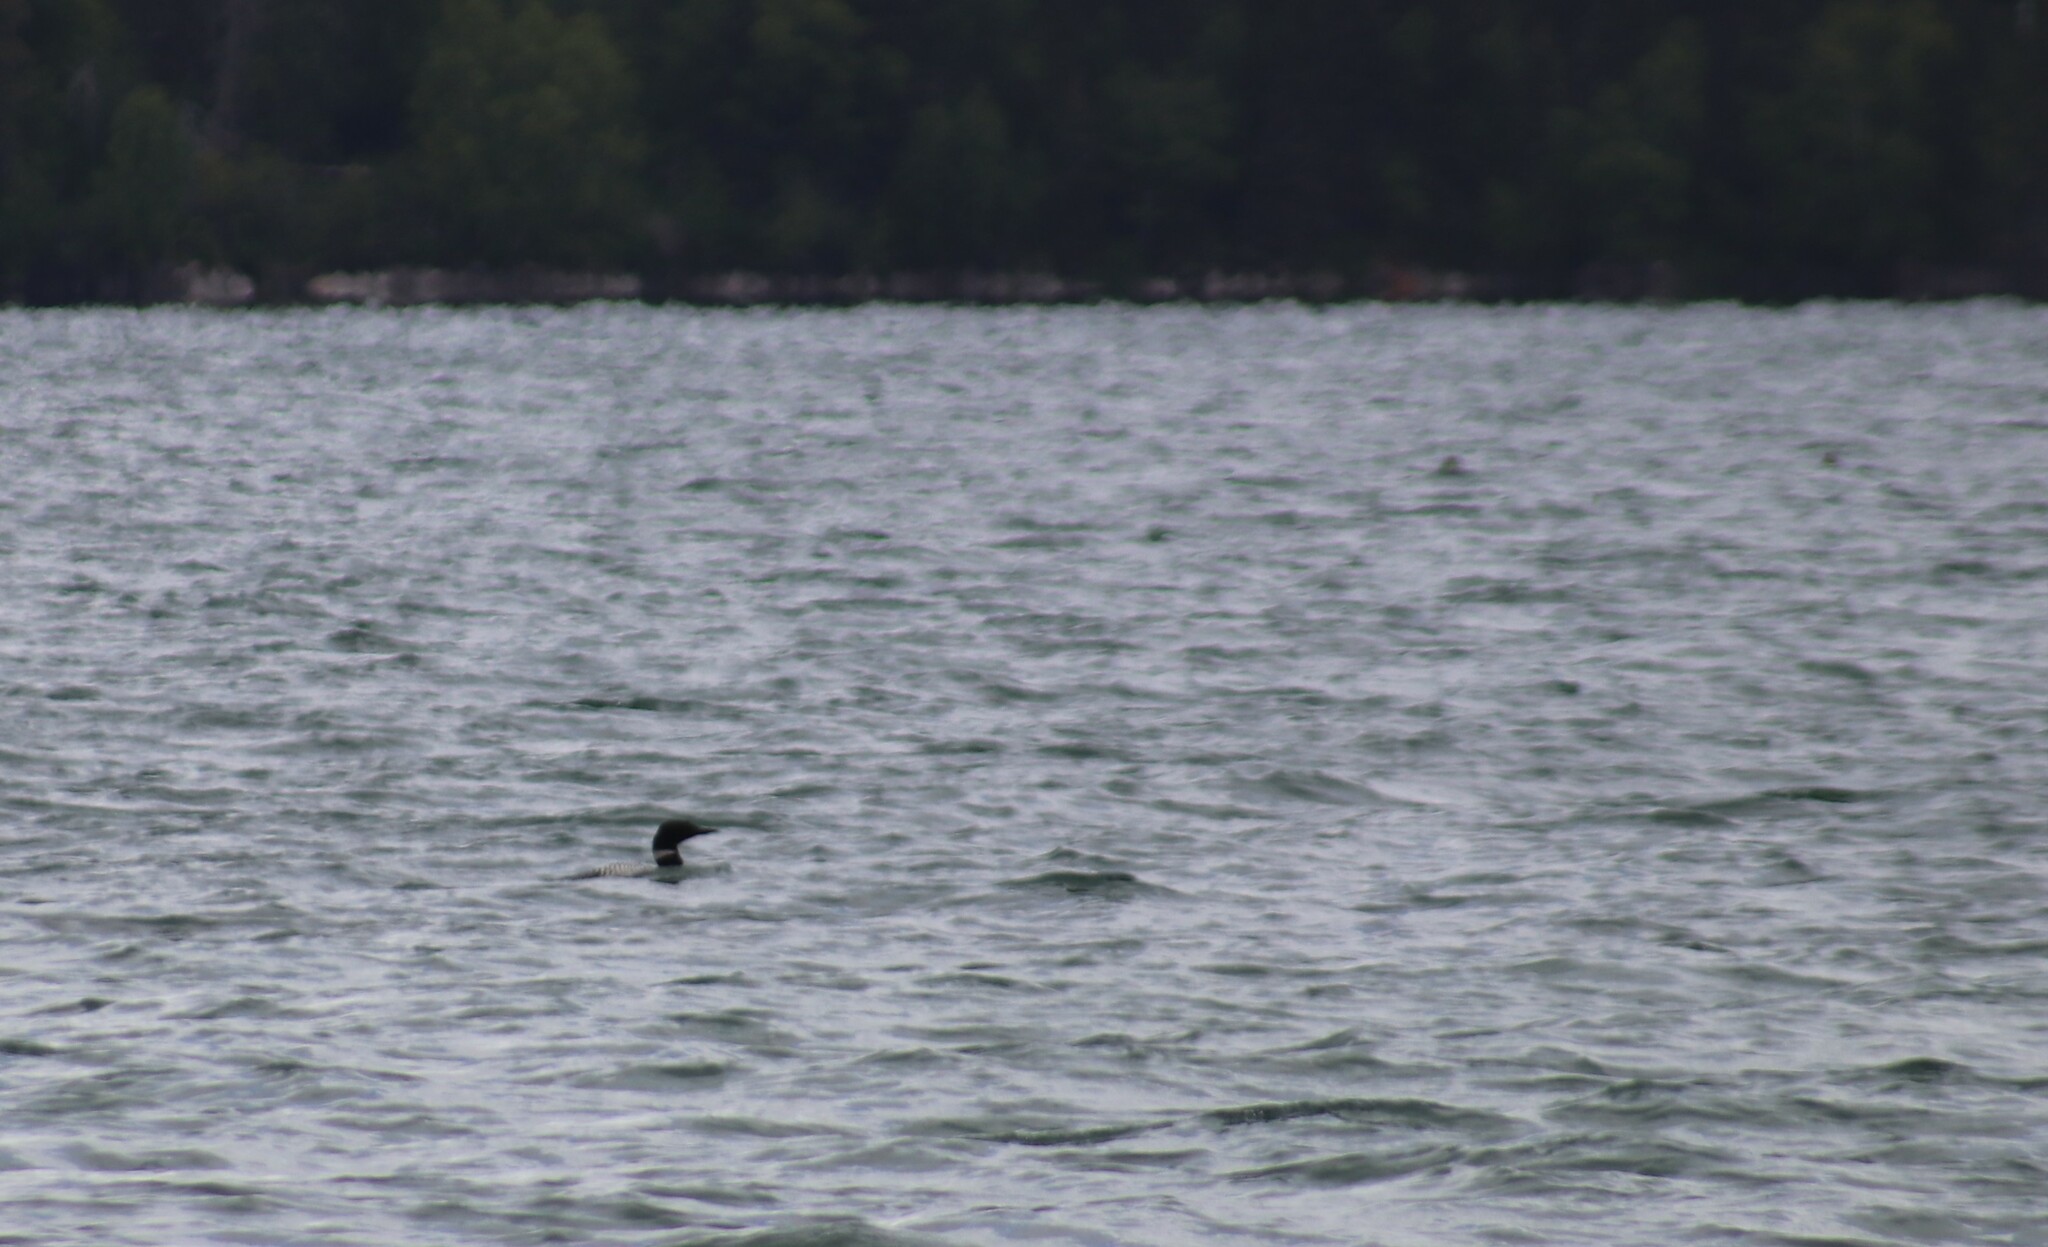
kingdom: Animalia
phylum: Chordata
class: Aves
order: Gaviiformes
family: Gaviidae
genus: Gavia
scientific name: Gavia immer
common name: Common loon
